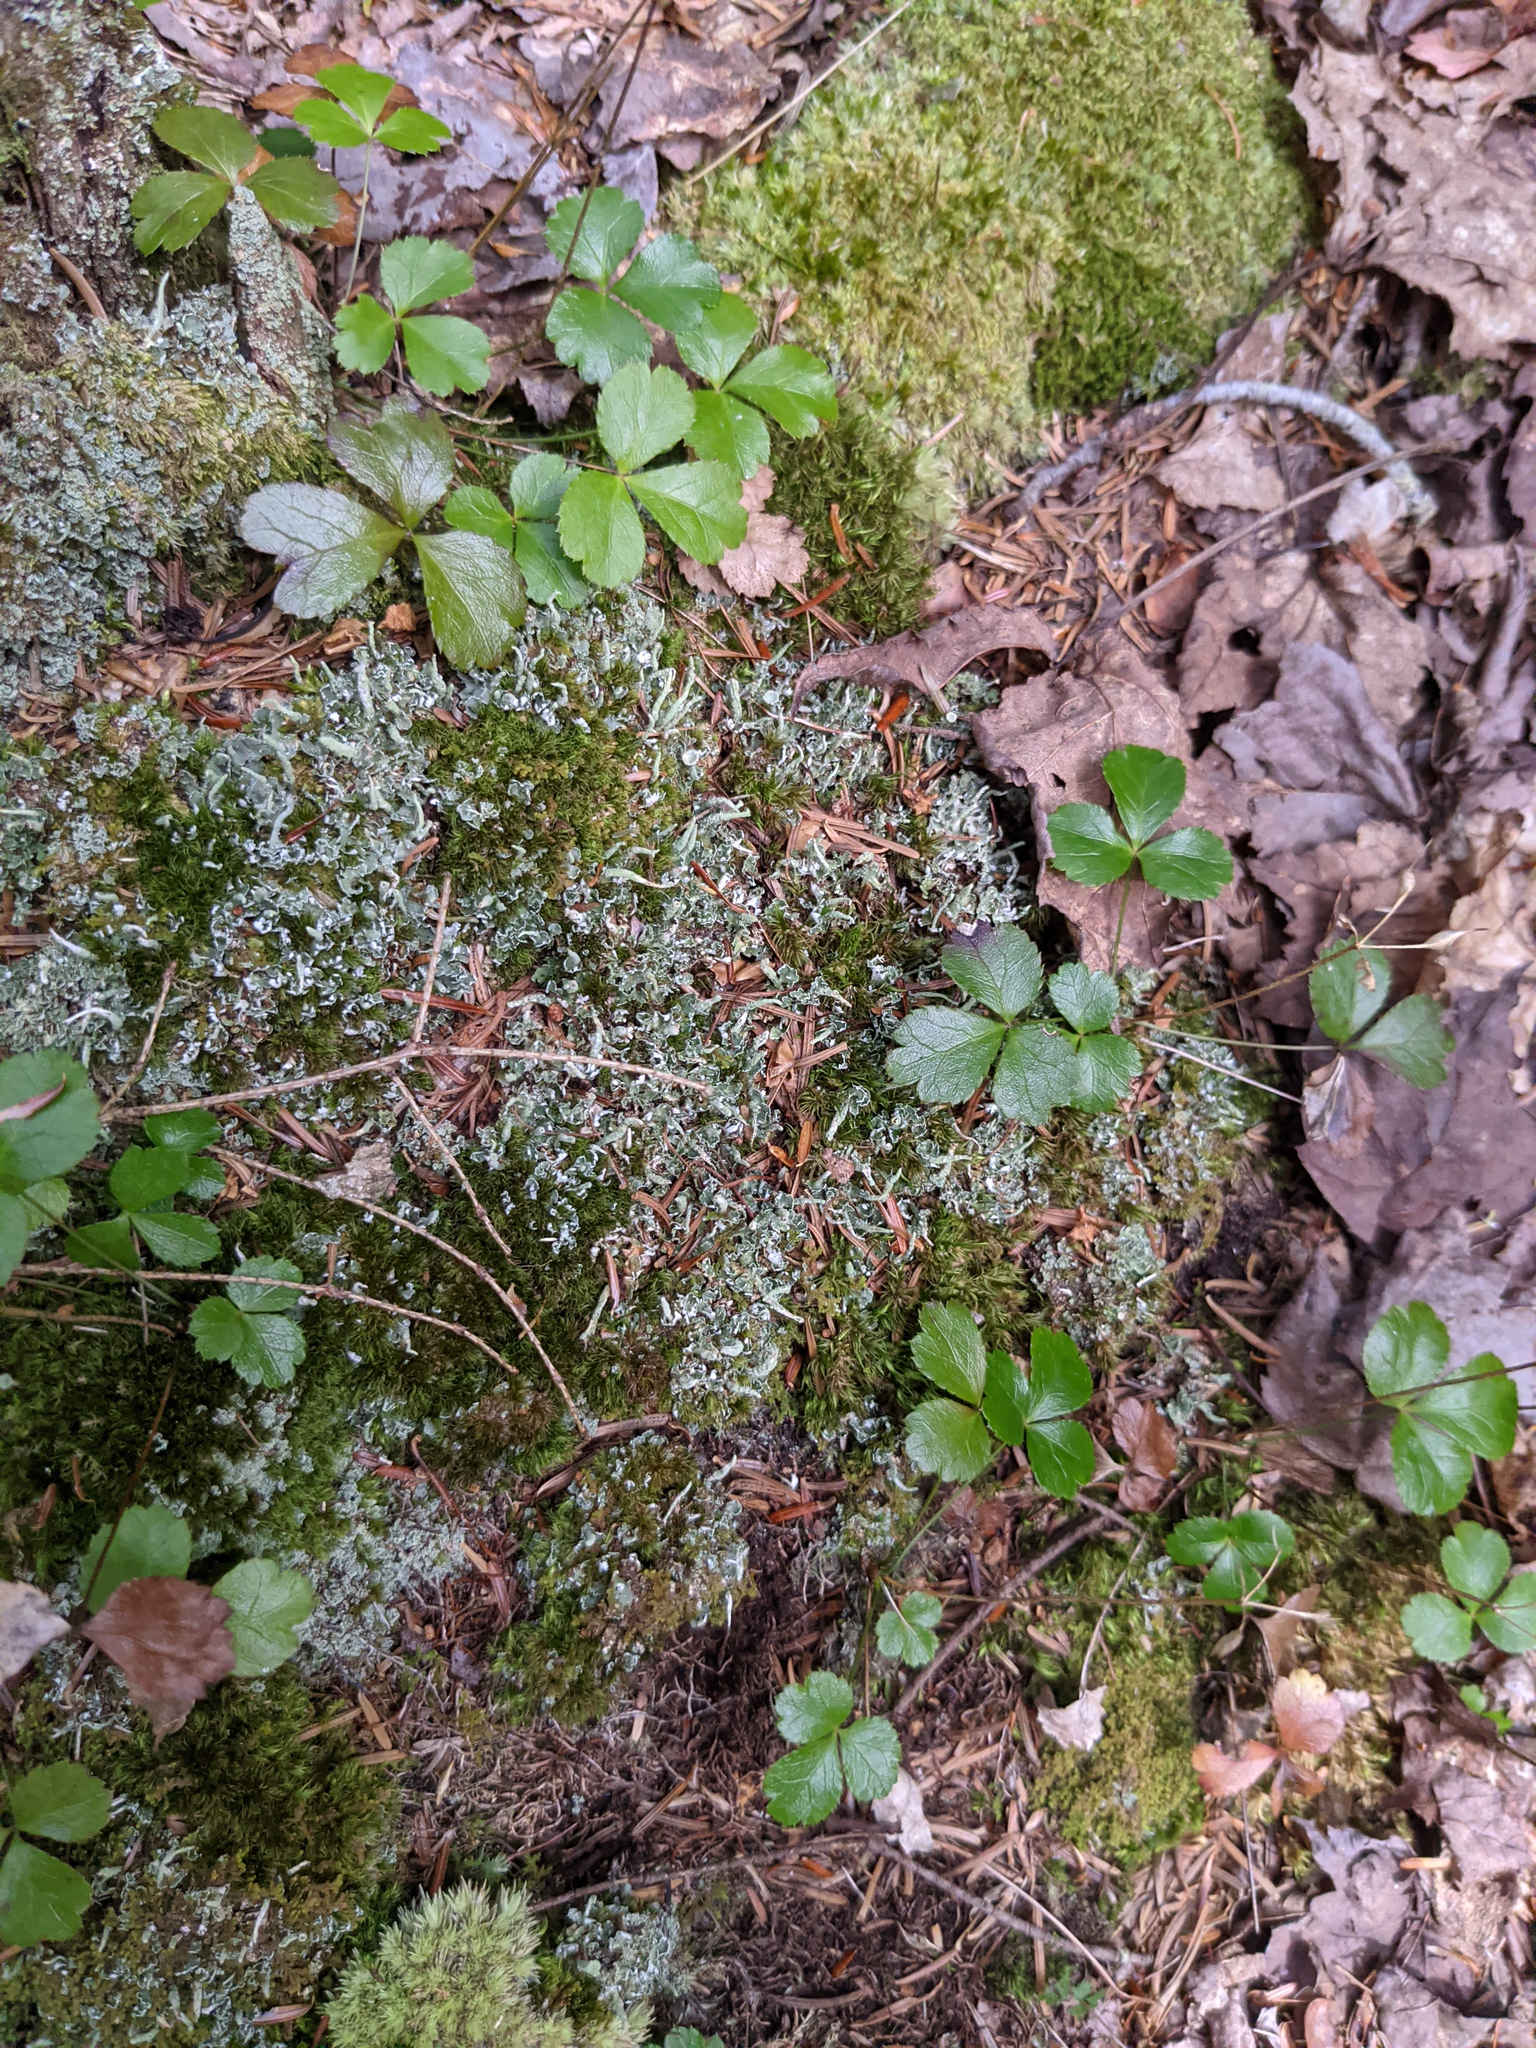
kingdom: Plantae
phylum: Tracheophyta
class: Magnoliopsida
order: Ranunculales
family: Ranunculaceae
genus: Coptis
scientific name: Coptis trifolia
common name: Canker-root
